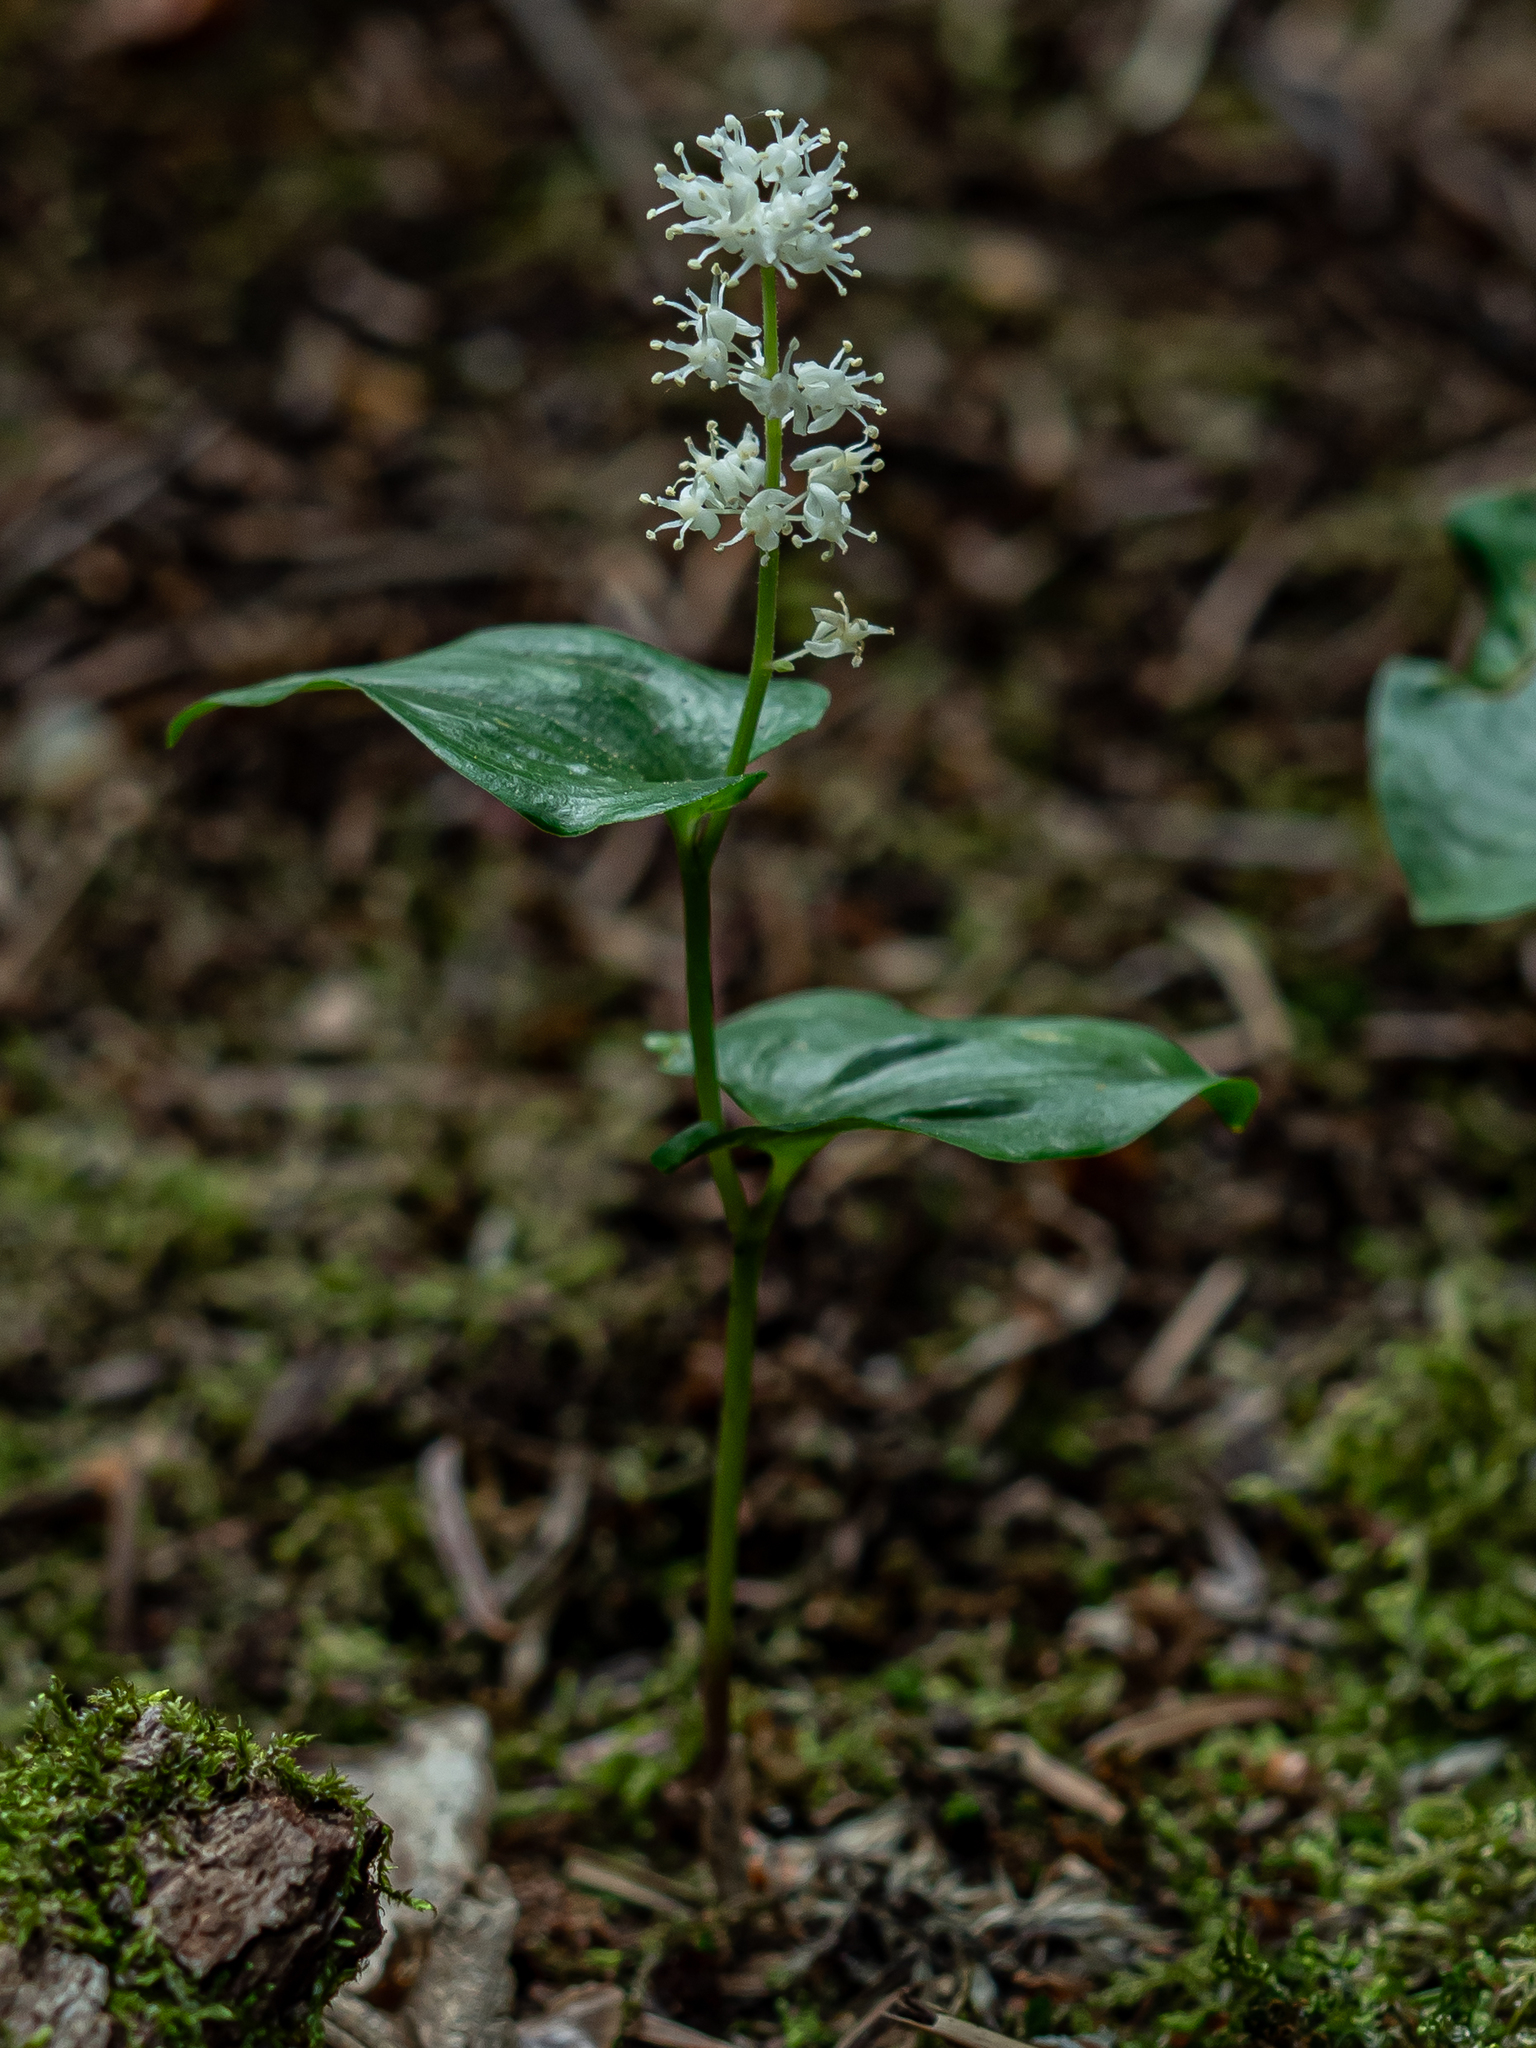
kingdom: Plantae
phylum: Tracheophyta
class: Liliopsida
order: Asparagales
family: Asparagaceae
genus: Maianthemum
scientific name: Maianthemum bifolium
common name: May lily
